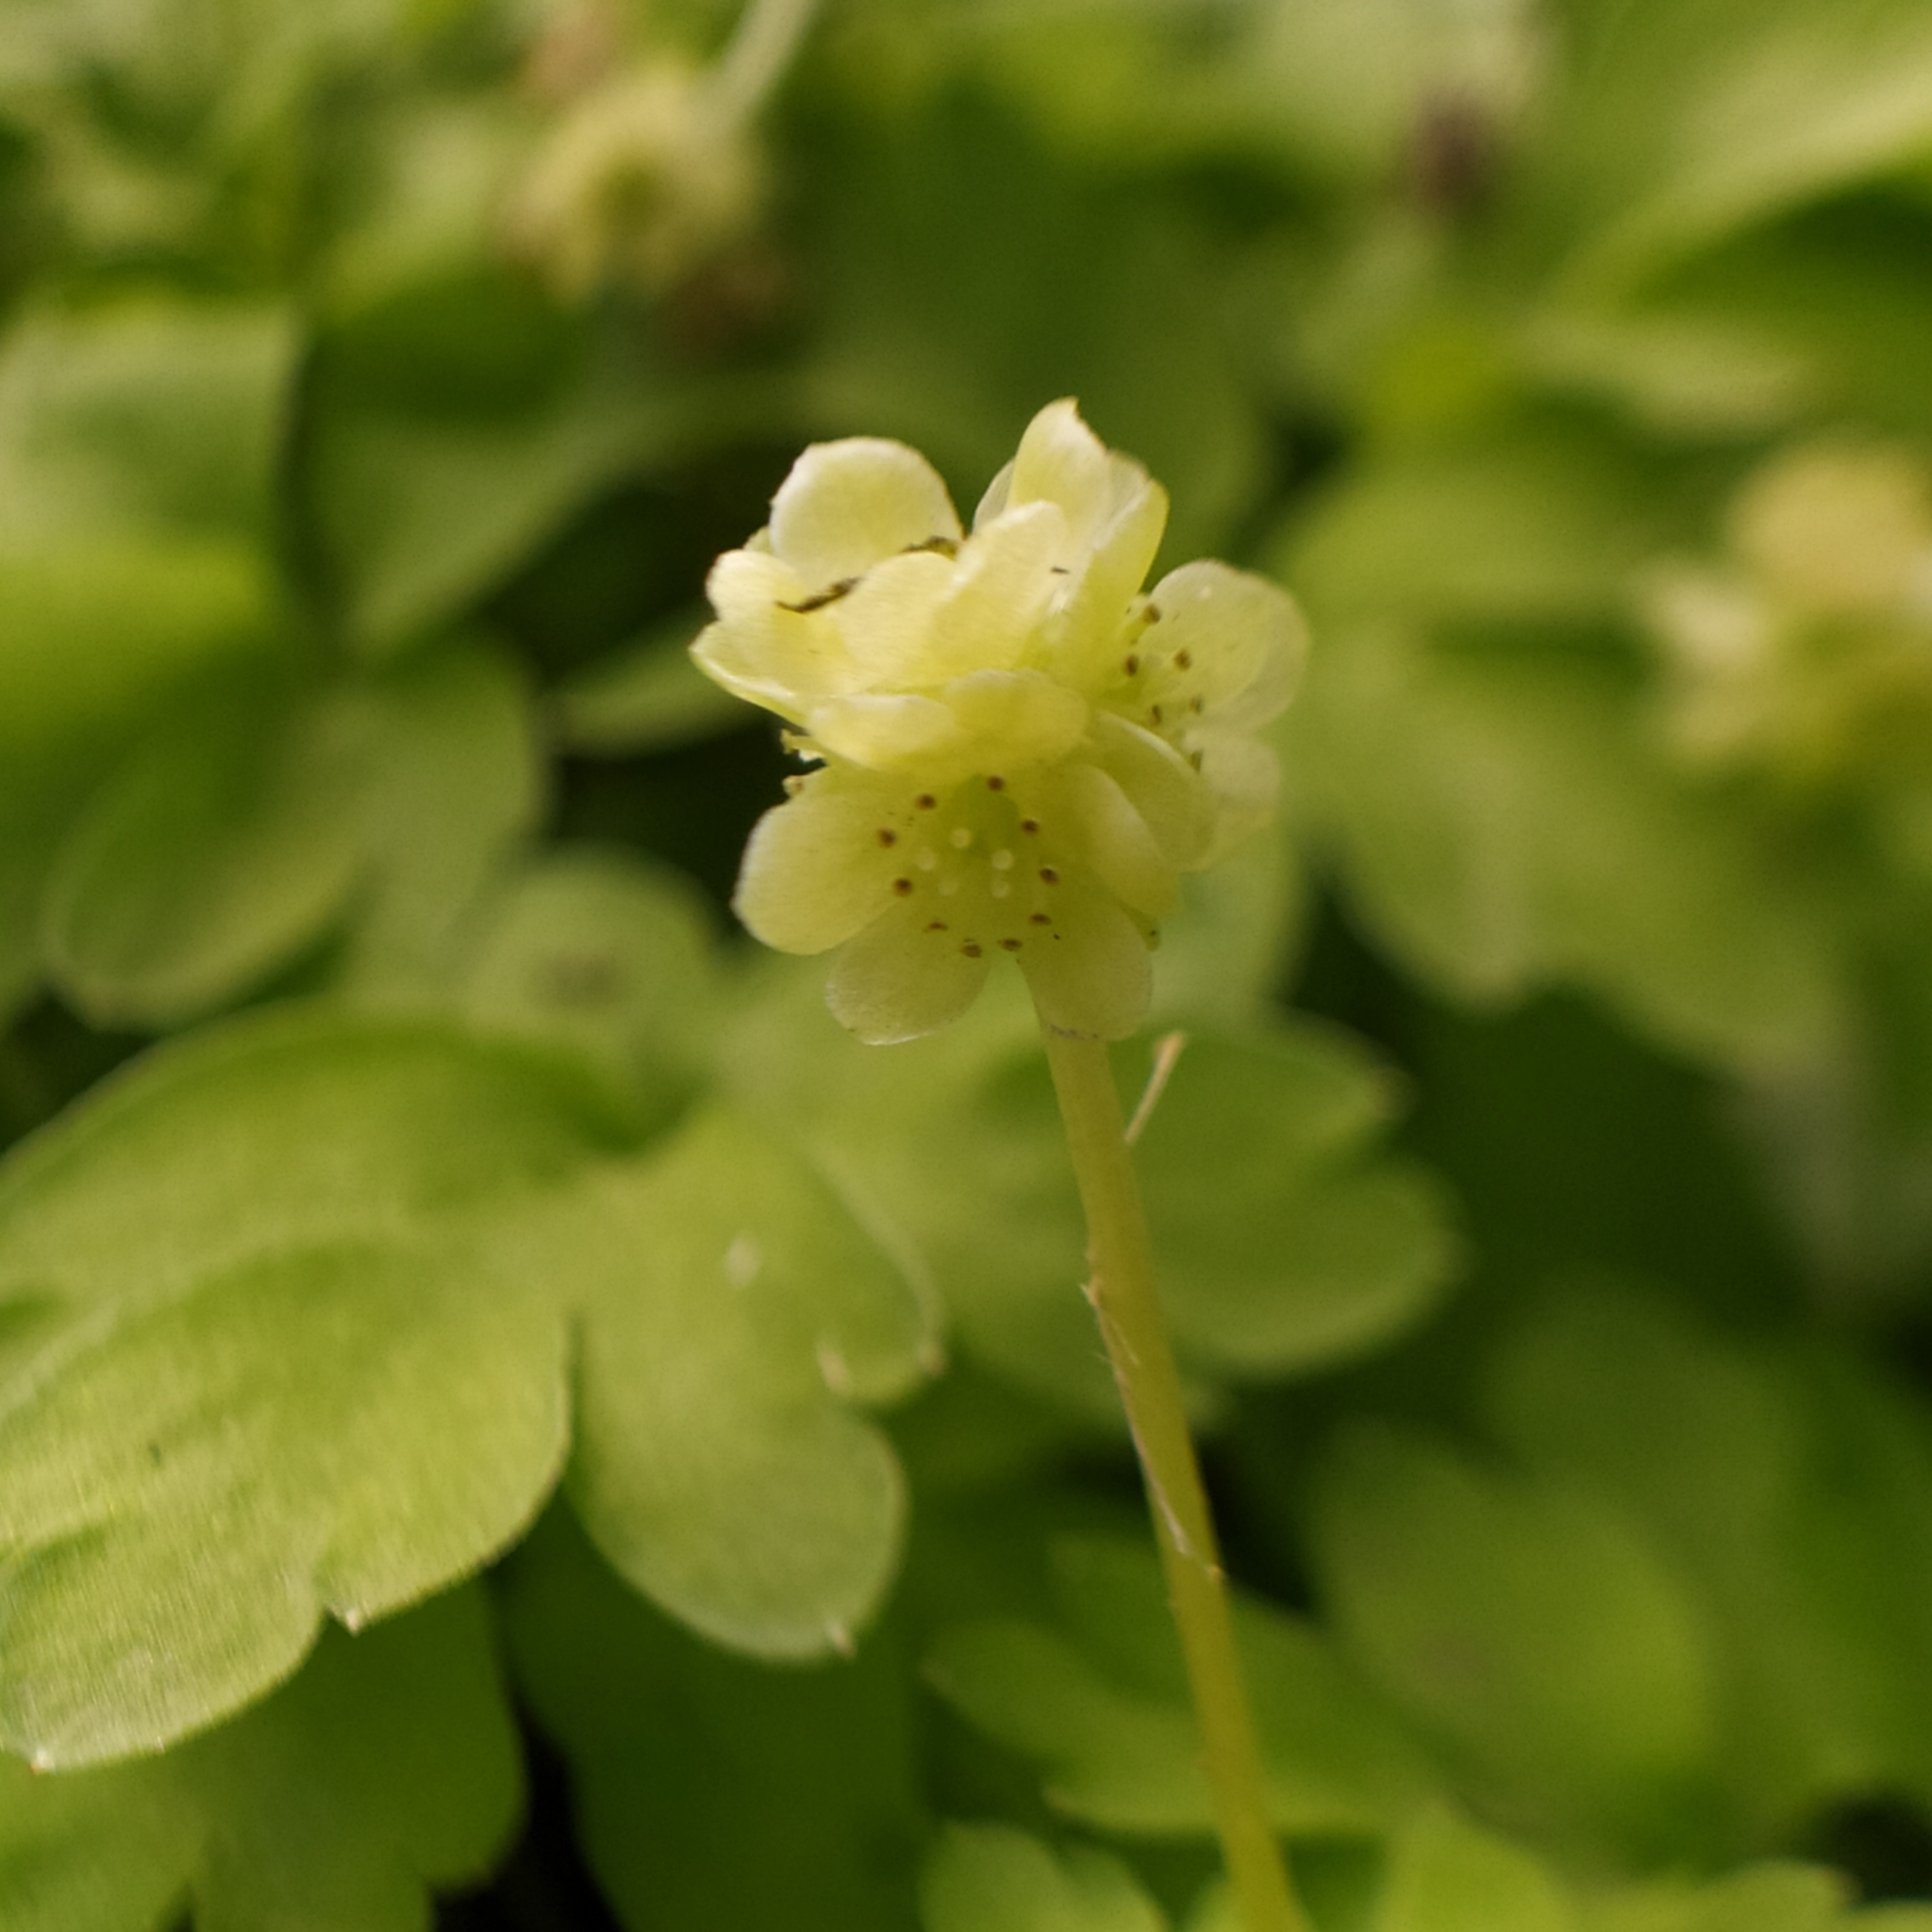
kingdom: Plantae
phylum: Tracheophyta
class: Magnoliopsida
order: Dipsacales
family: Viburnaceae
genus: Adoxa
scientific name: Adoxa moschatellina
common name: Moschatel
